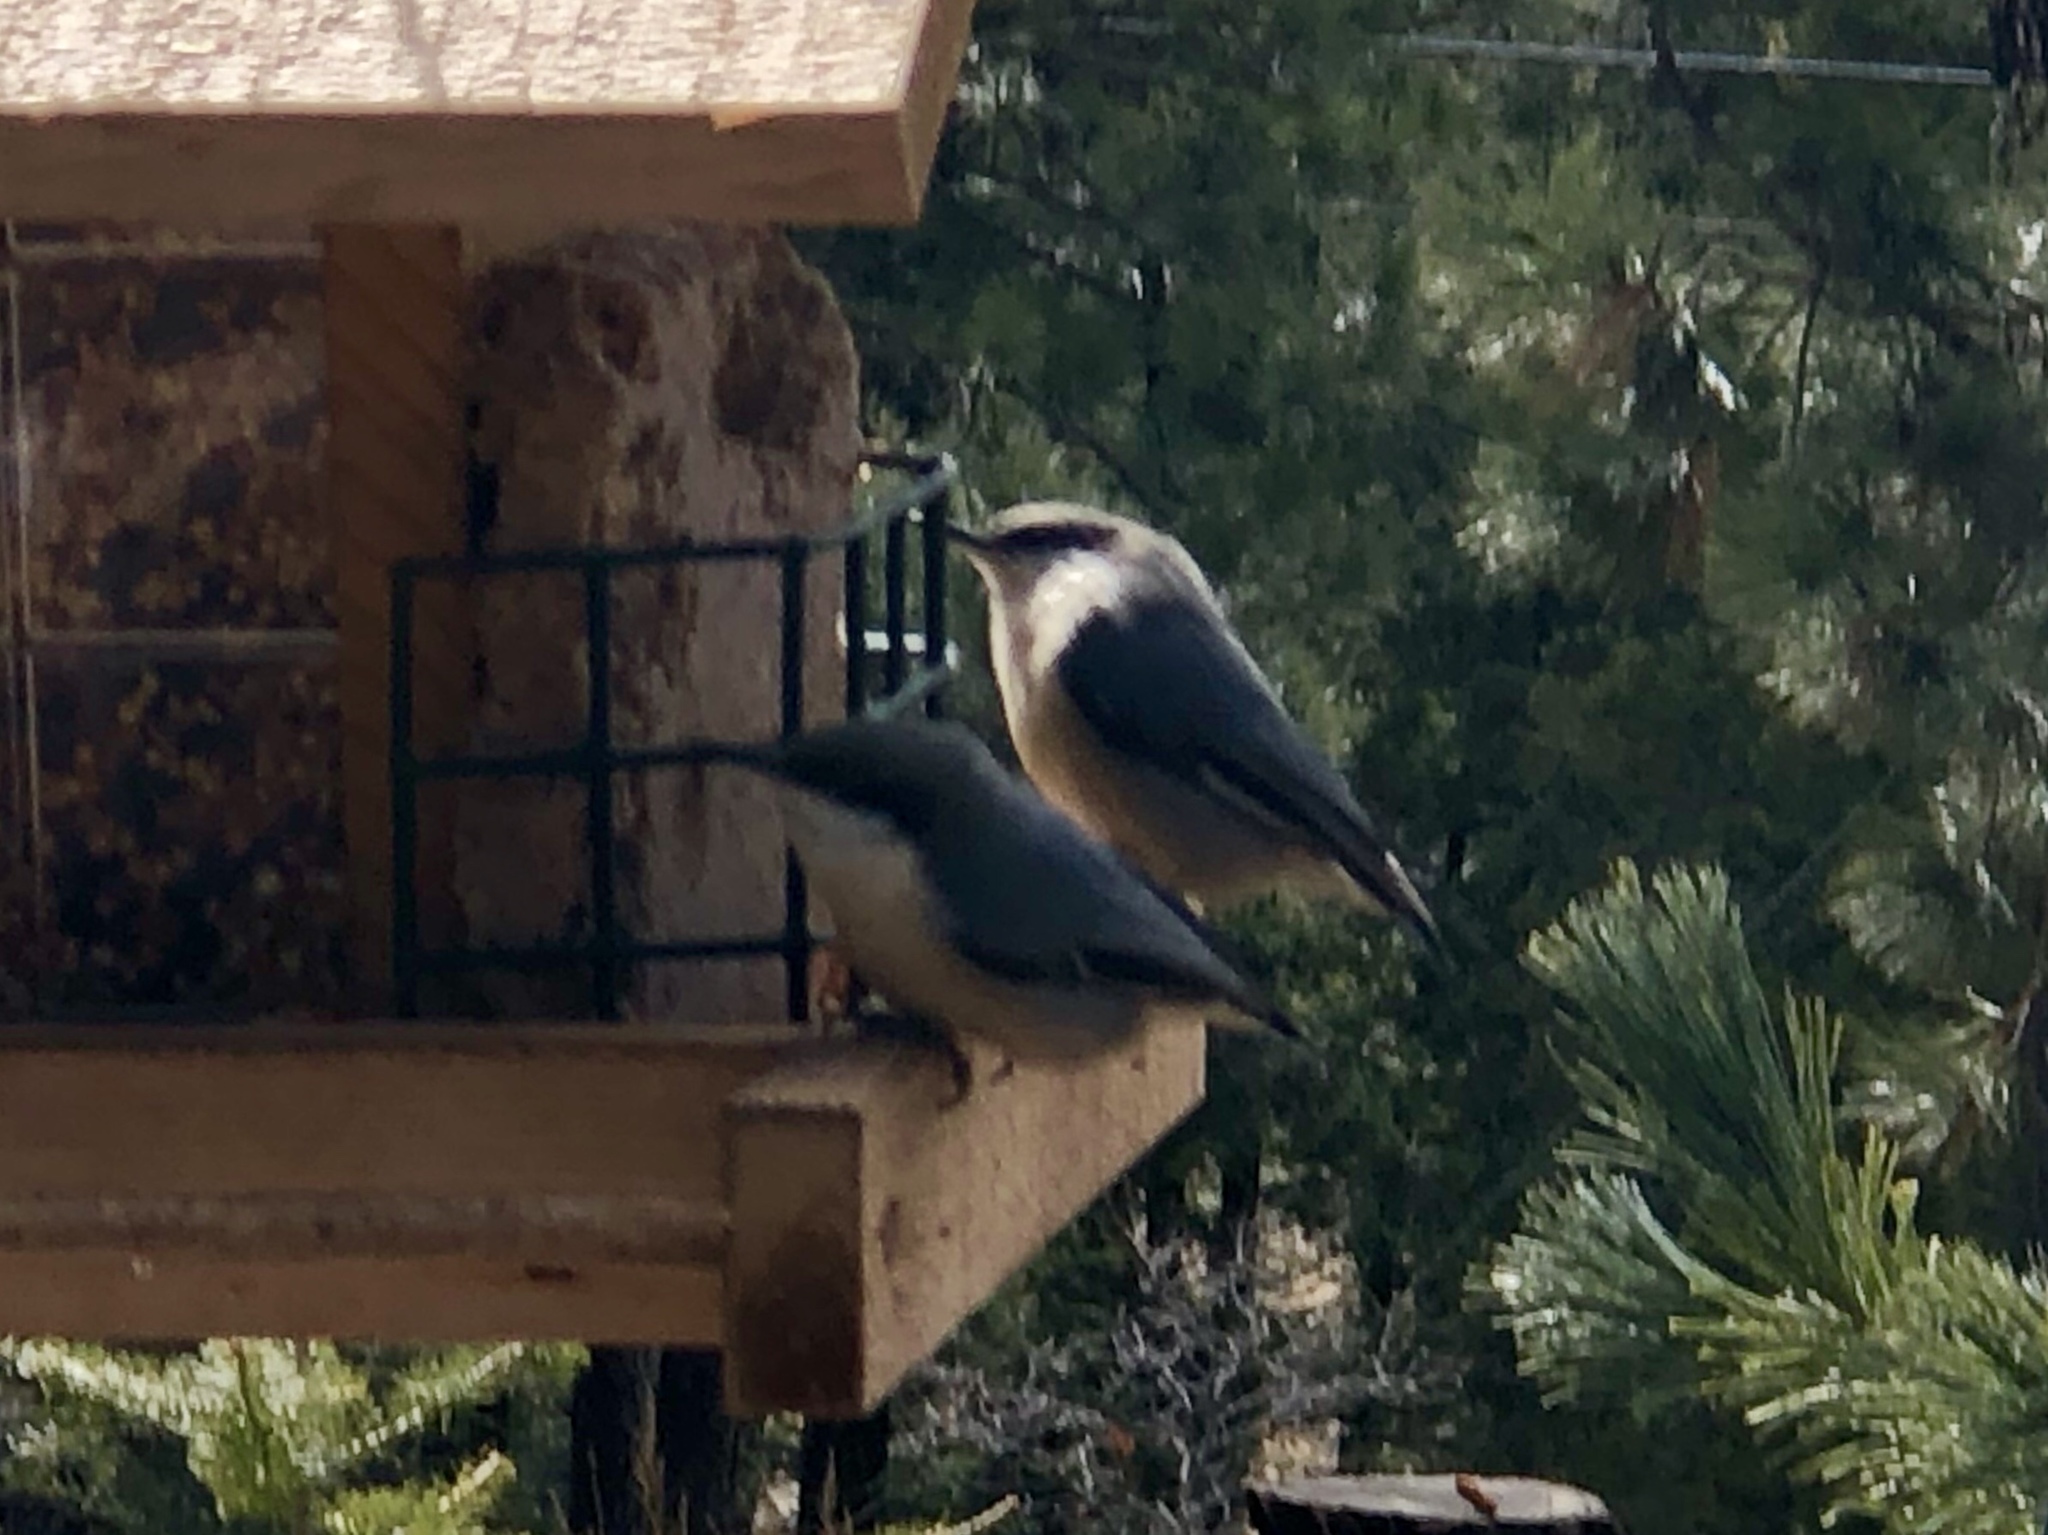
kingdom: Animalia
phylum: Chordata
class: Aves
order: Passeriformes
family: Sittidae
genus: Sitta
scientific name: Sitta pygmaea
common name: Pygmy nuthatch
